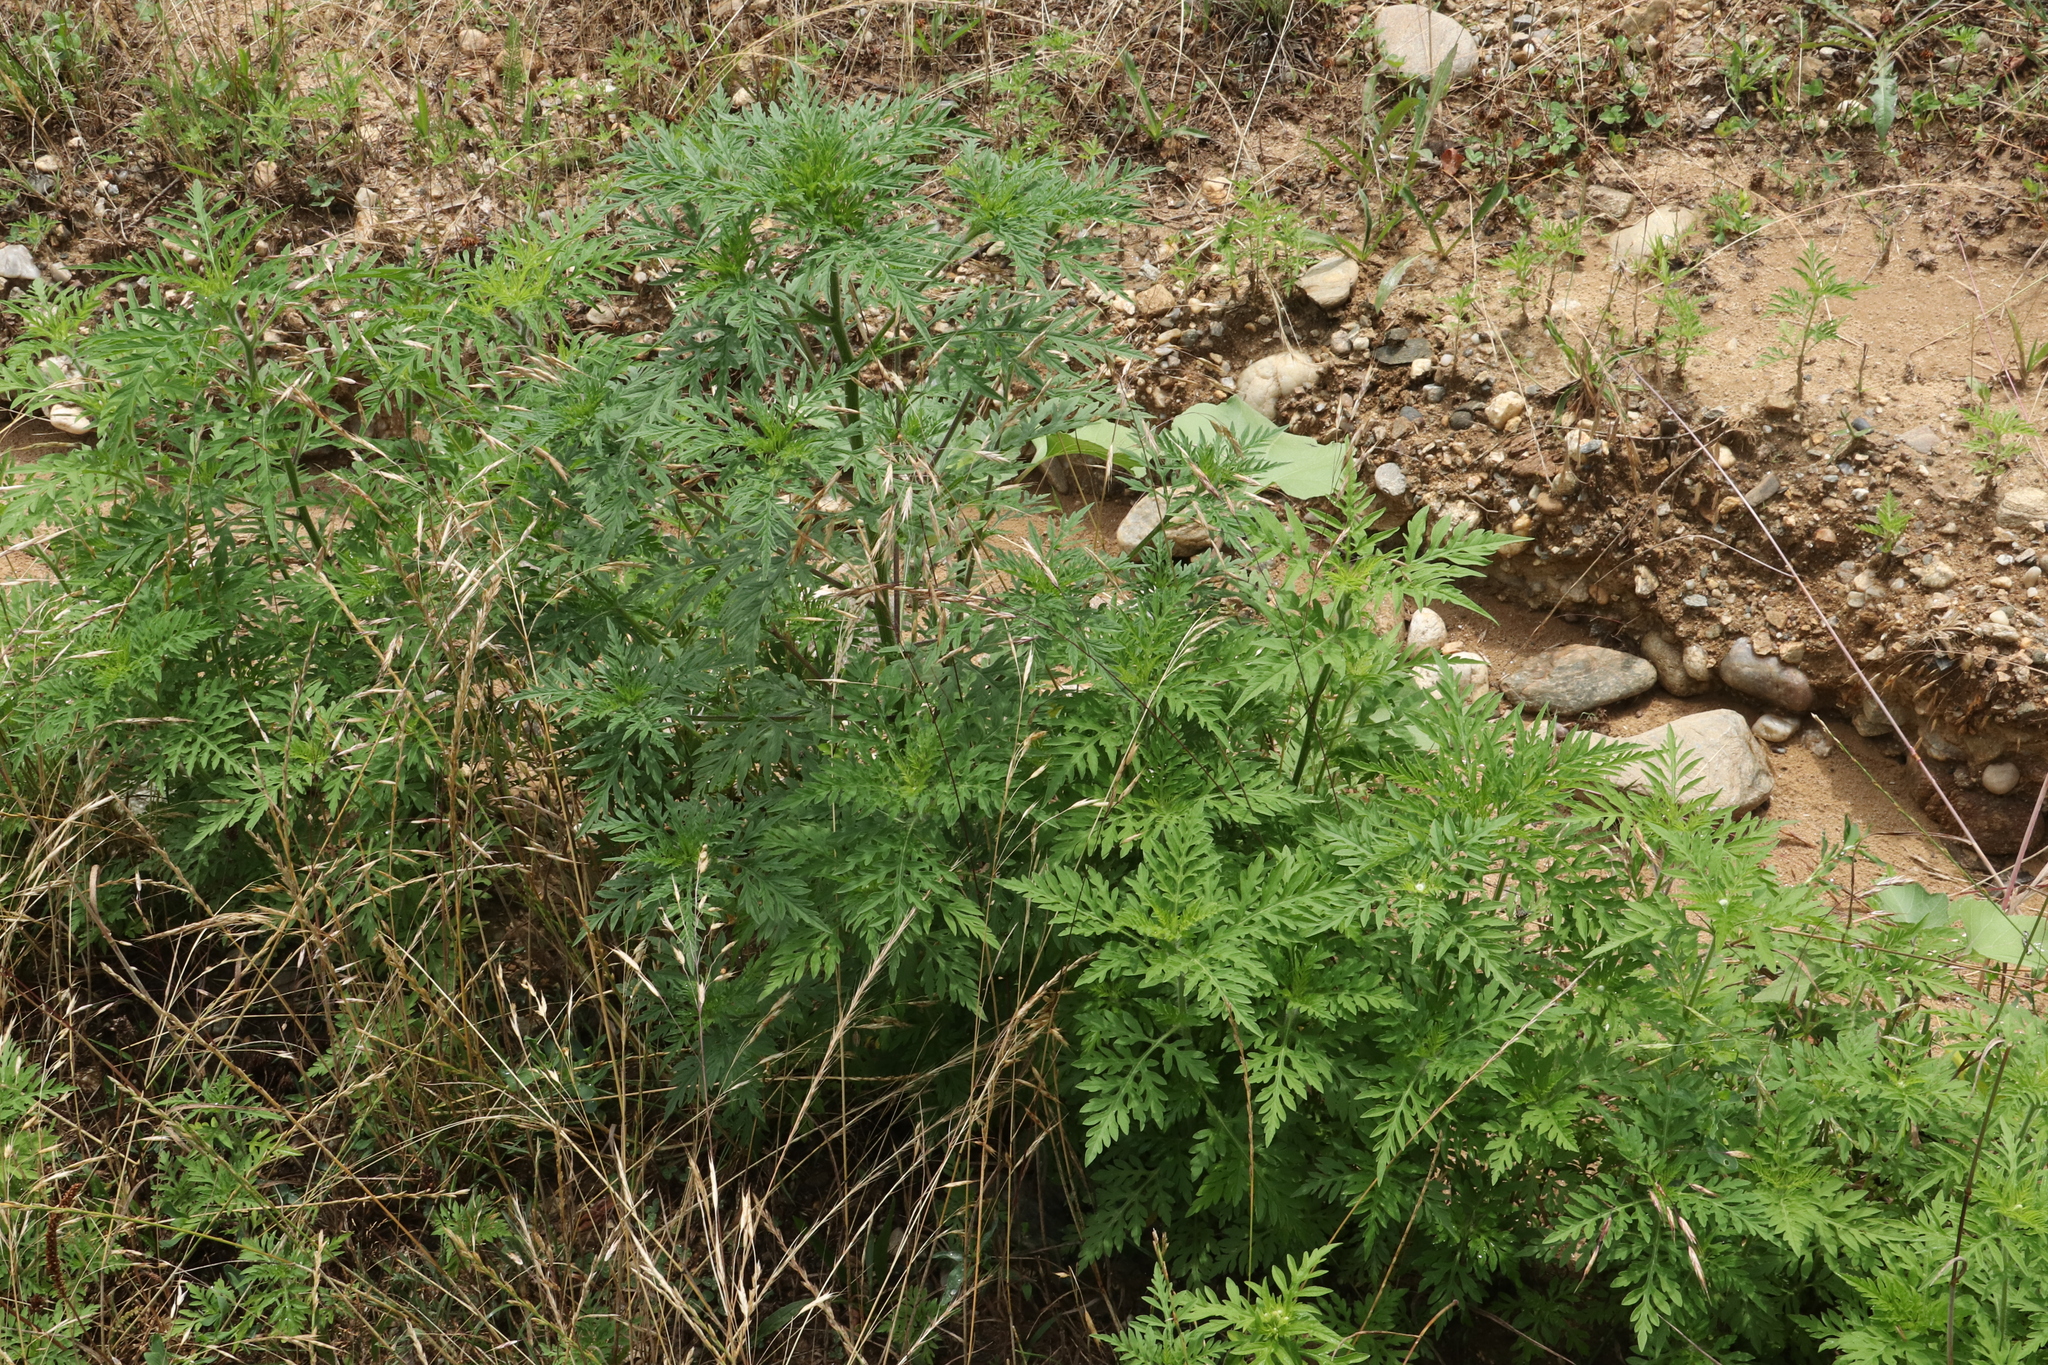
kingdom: Plantae
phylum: Tracheophyta
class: Magnoliopsida
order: Asterales
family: Asteraceae
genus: Ambrosia
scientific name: Ambrosia artemisiifolia
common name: Annual ragweed
